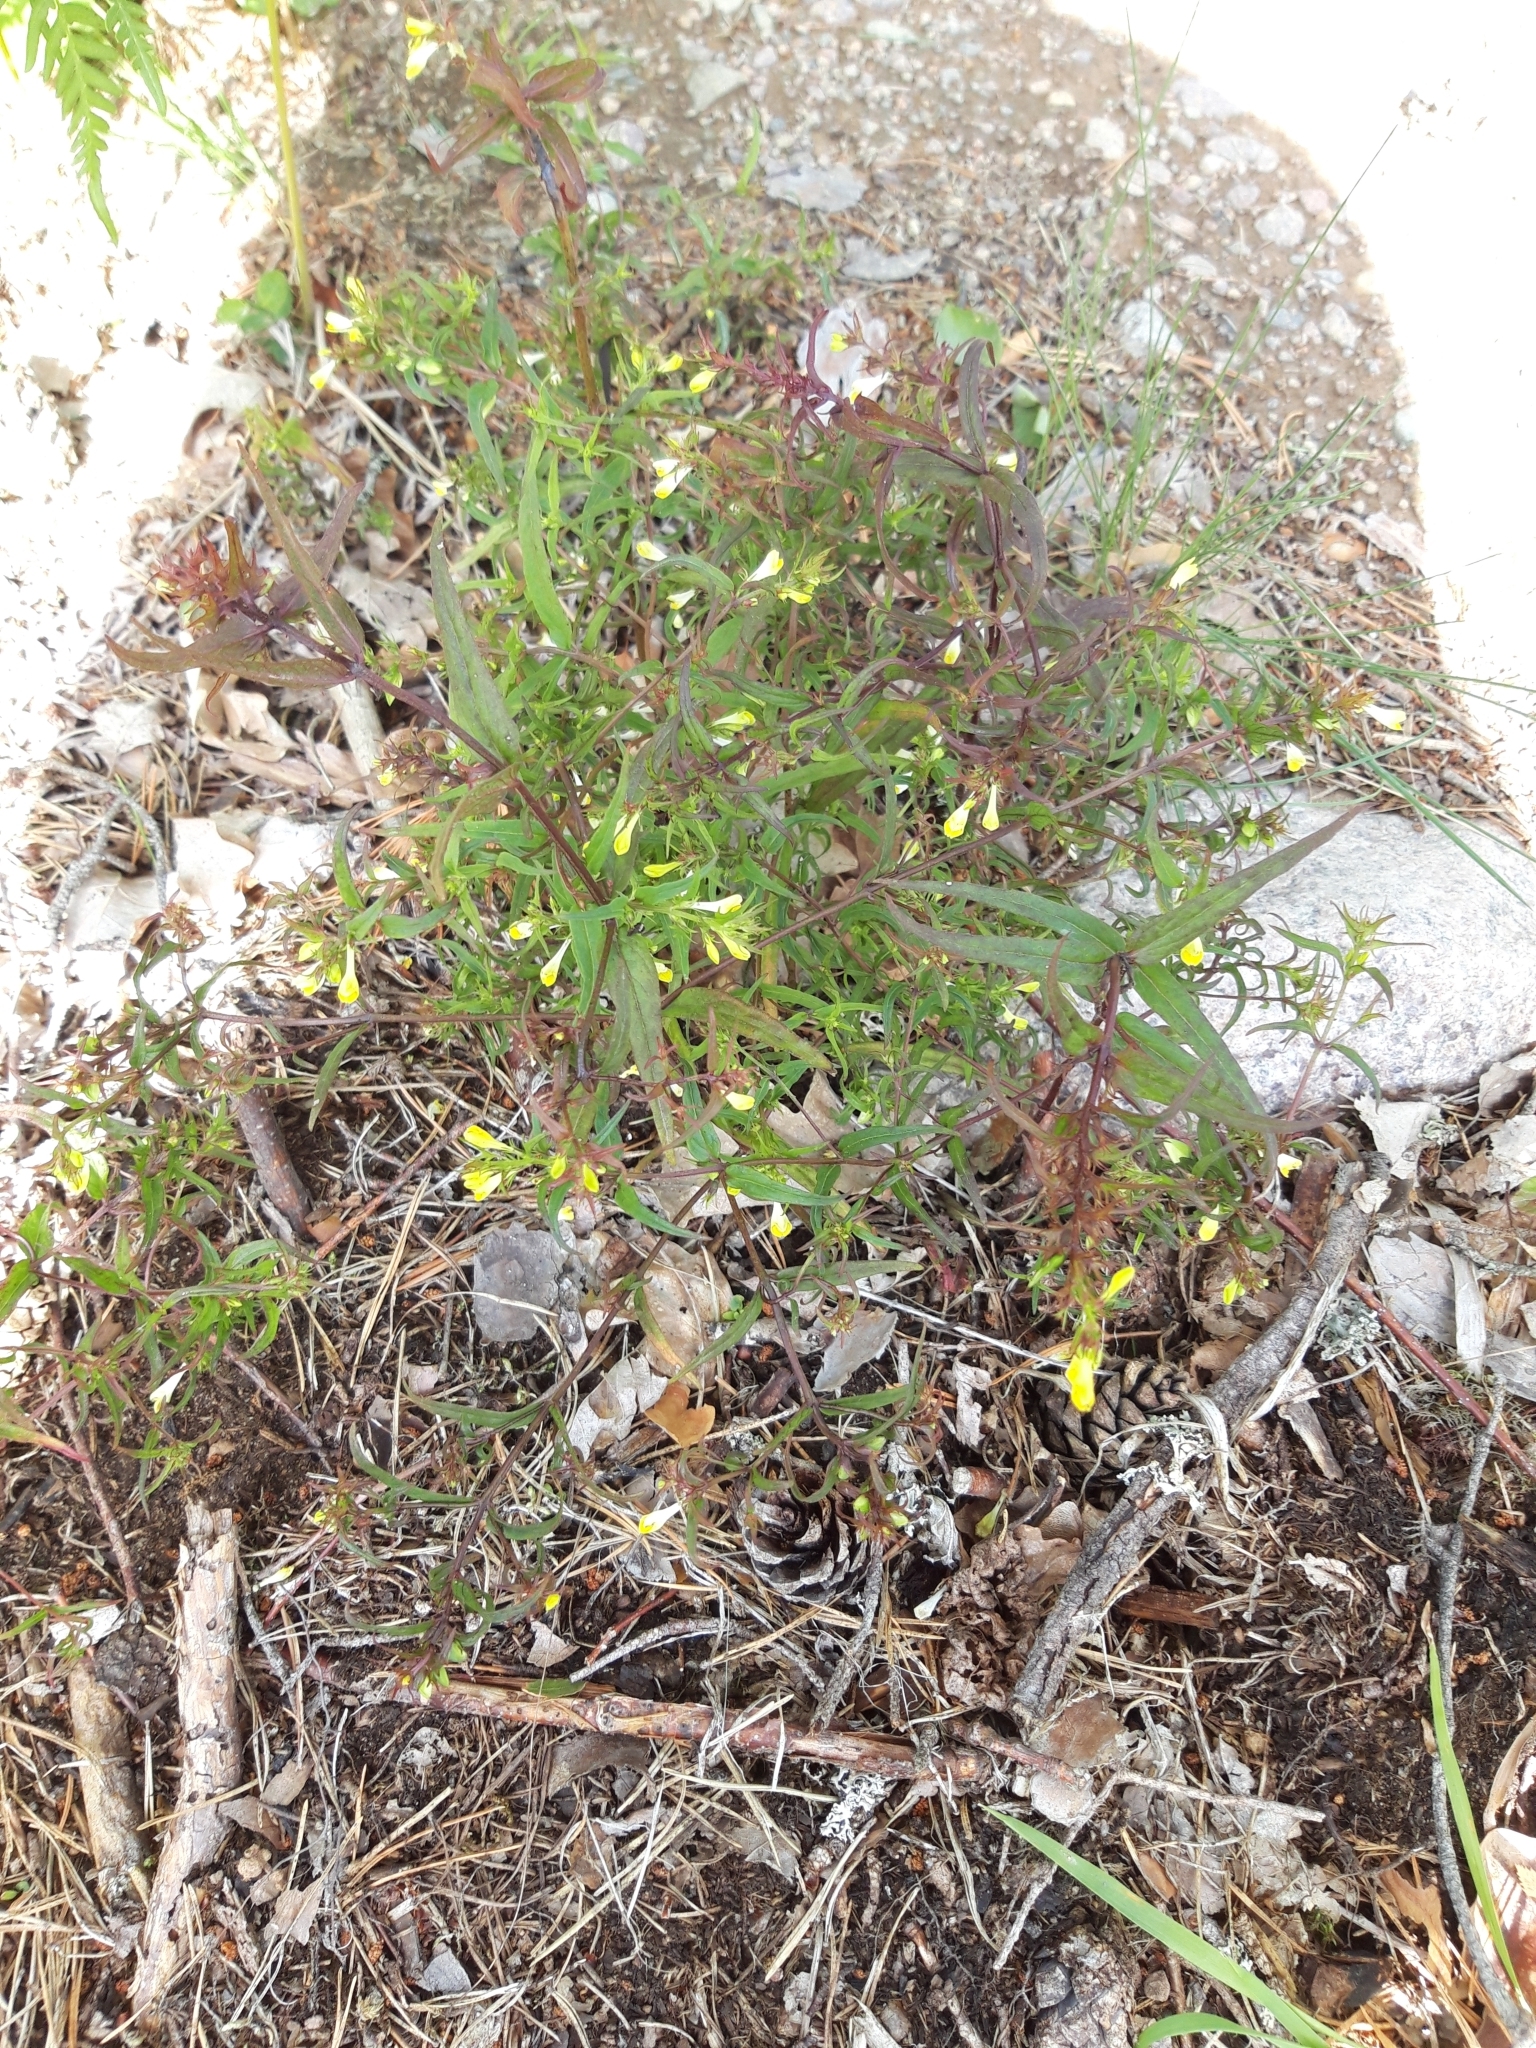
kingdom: Plantae
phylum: Tracheophyta
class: Magnoliopsida
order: Lamiales
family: Orobanchaceae
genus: Melampyrum
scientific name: Melampyrum pratense
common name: Common cow-wheat
